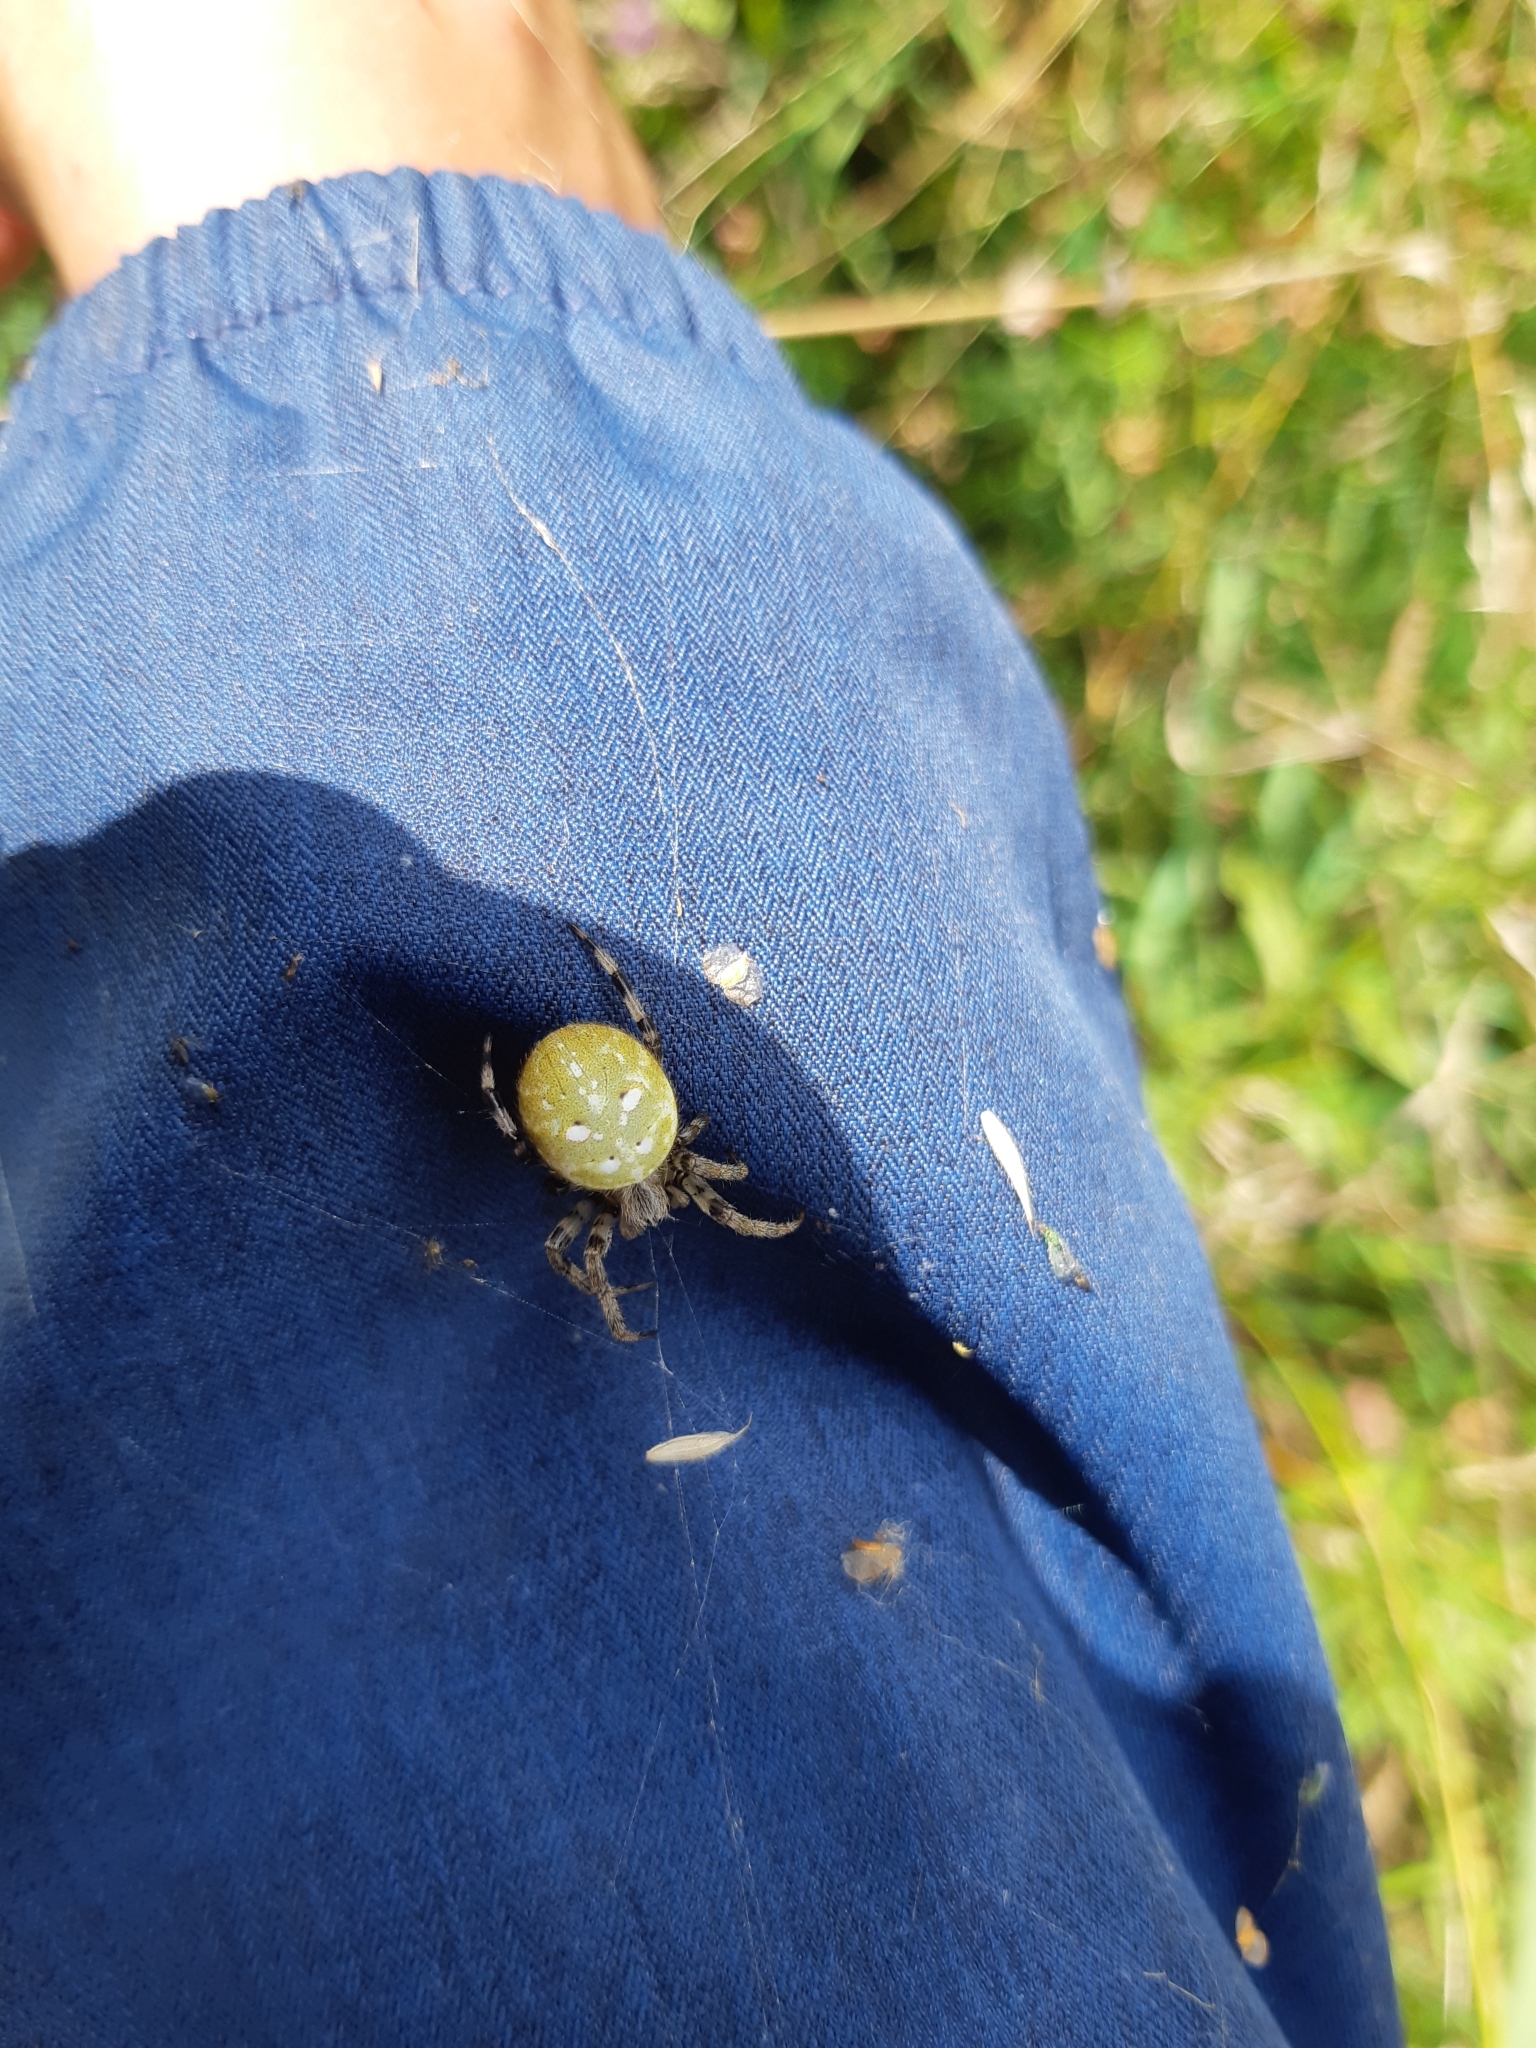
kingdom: Animalia
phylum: Arthropoda
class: Arachnida
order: Araneae
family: Araneidae
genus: Araneus
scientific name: Araneus quadratus
